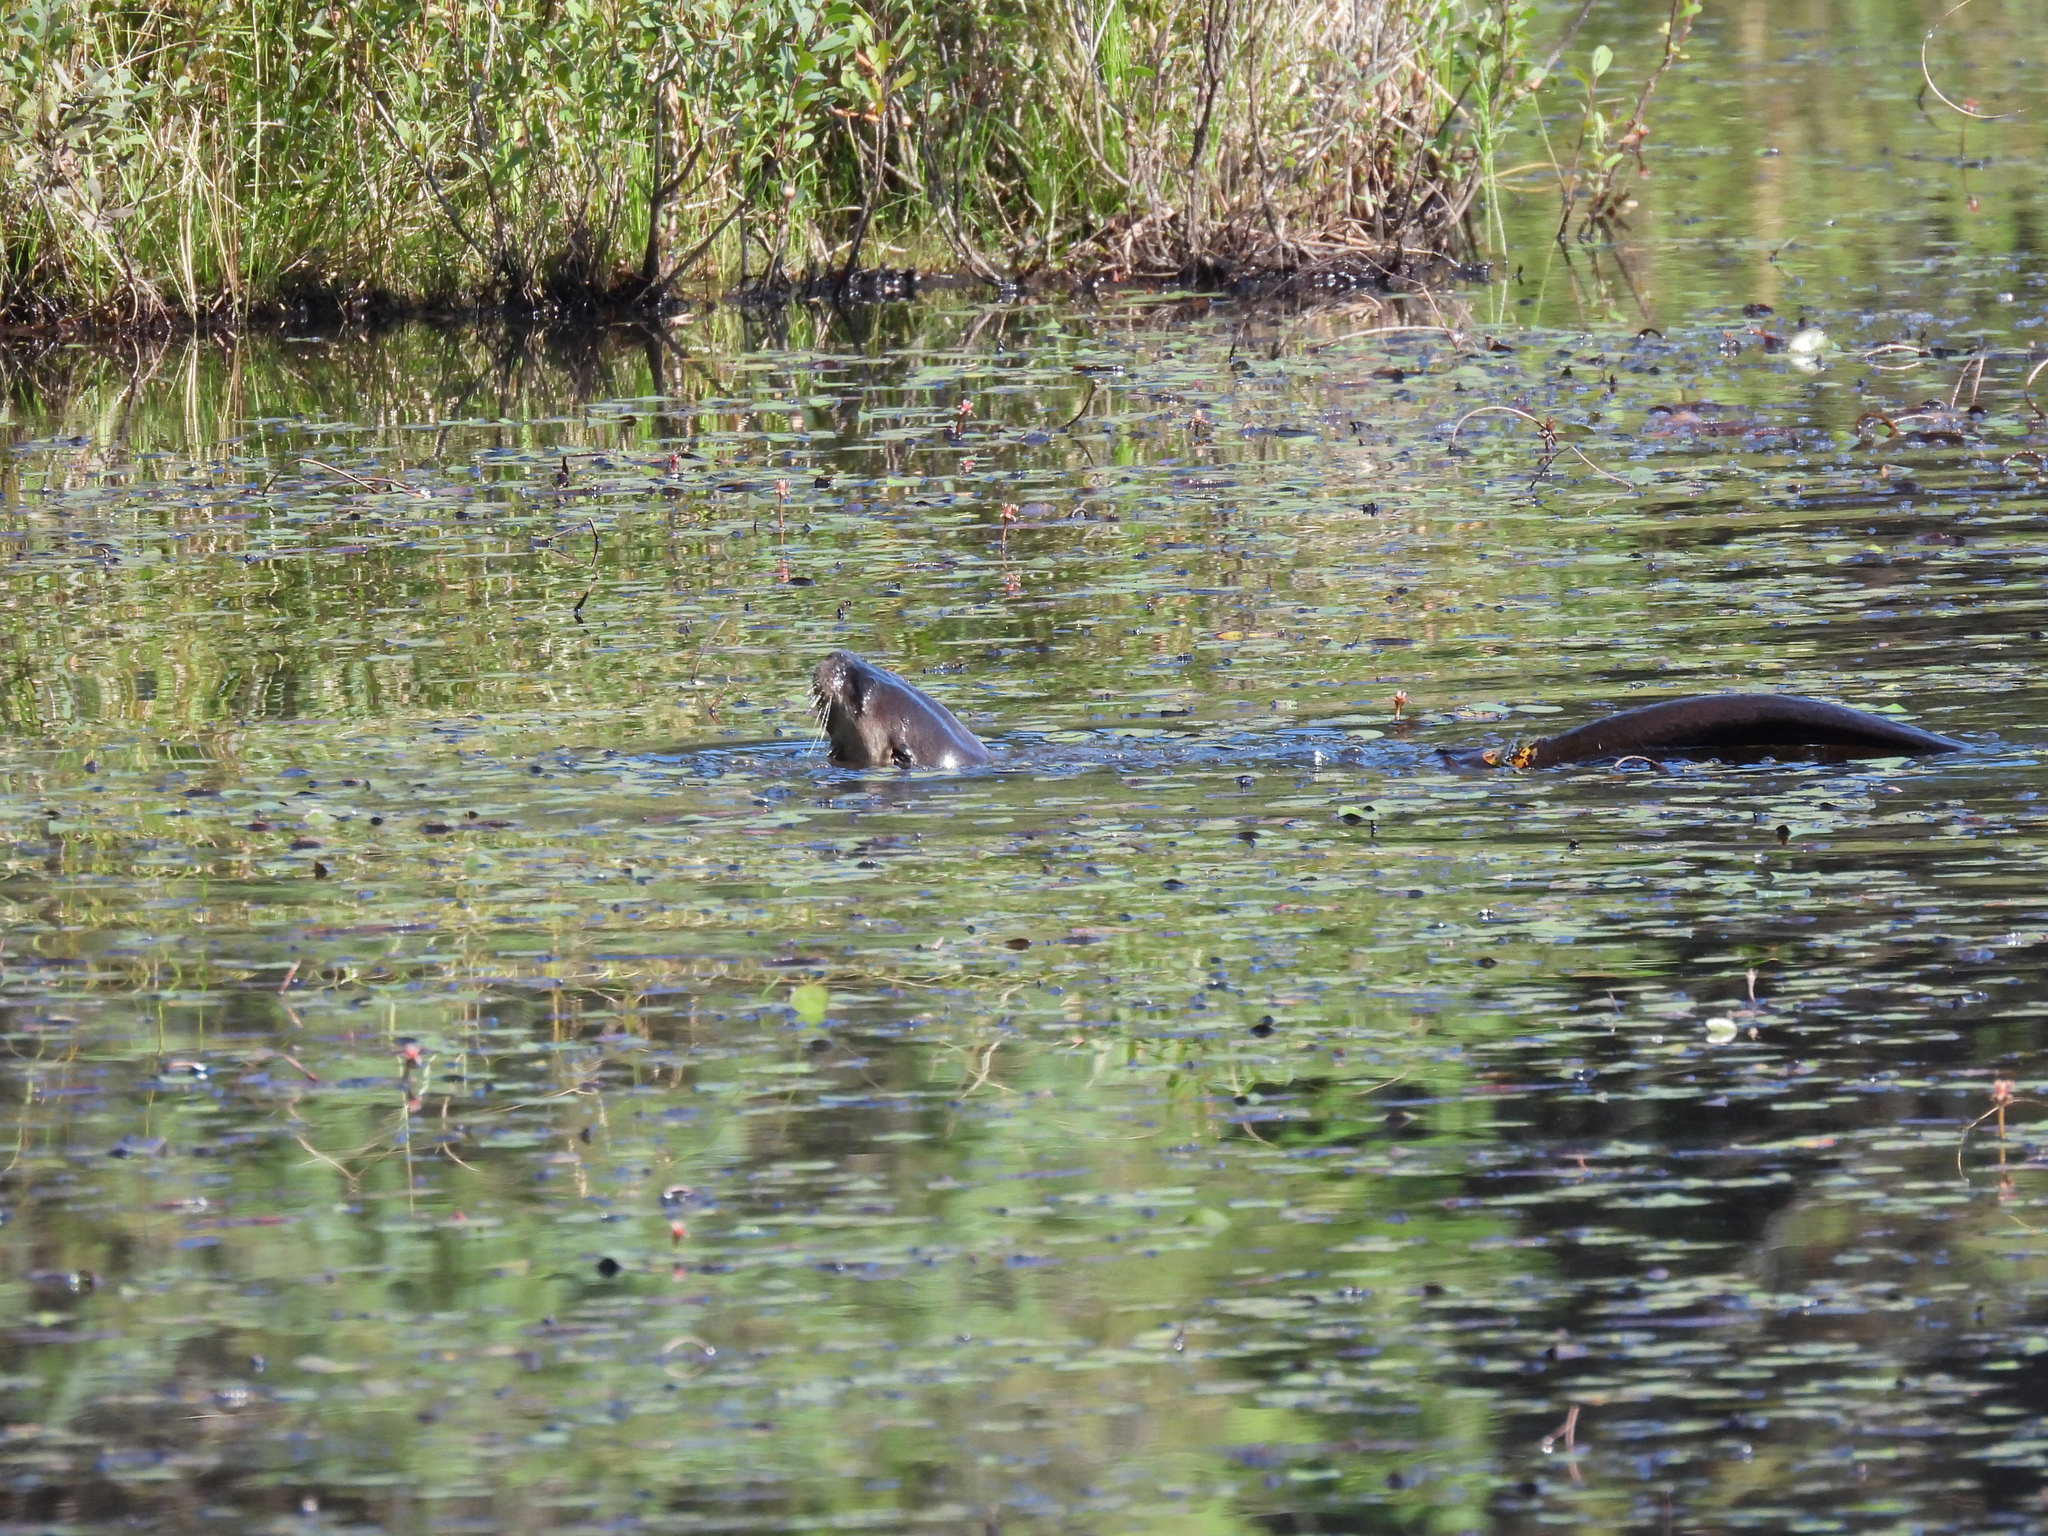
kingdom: Animalia
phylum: Chordata
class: Mammalia
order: Carnivora
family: Mustelidae
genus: Lontra
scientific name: Lontra canadensis
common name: North american river otter
